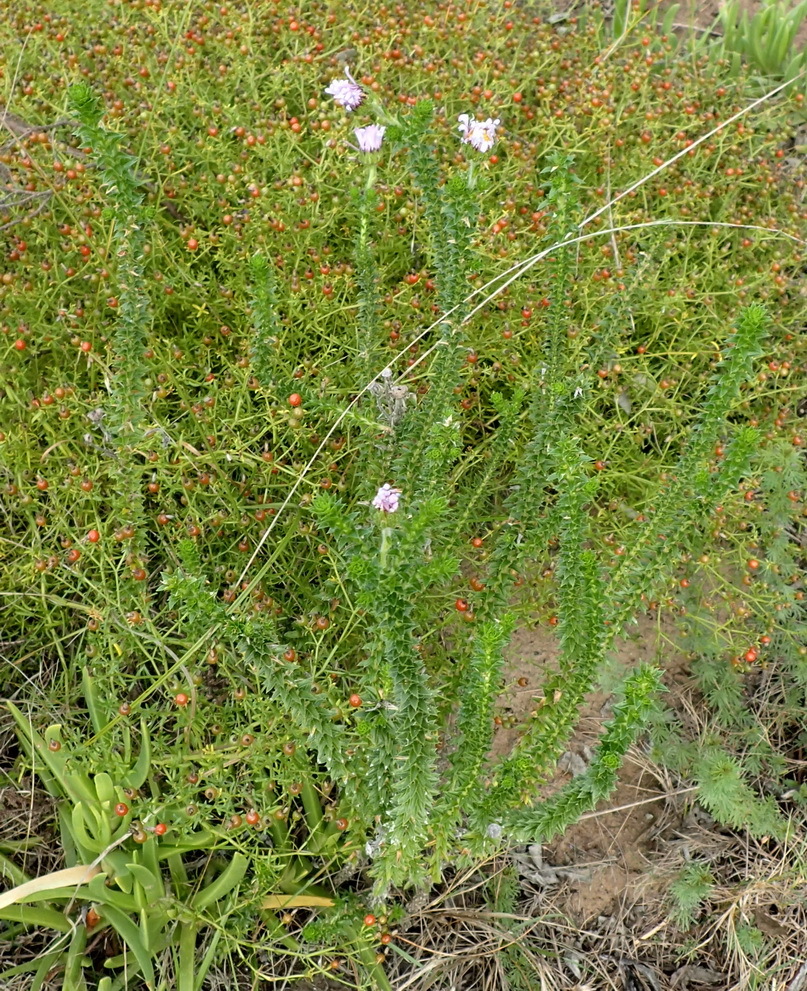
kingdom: Plantae
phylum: Tracheophyta
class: Magnoliopsida
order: Asterales
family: Asteraceae
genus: Felicia
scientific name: Felicia echinata
